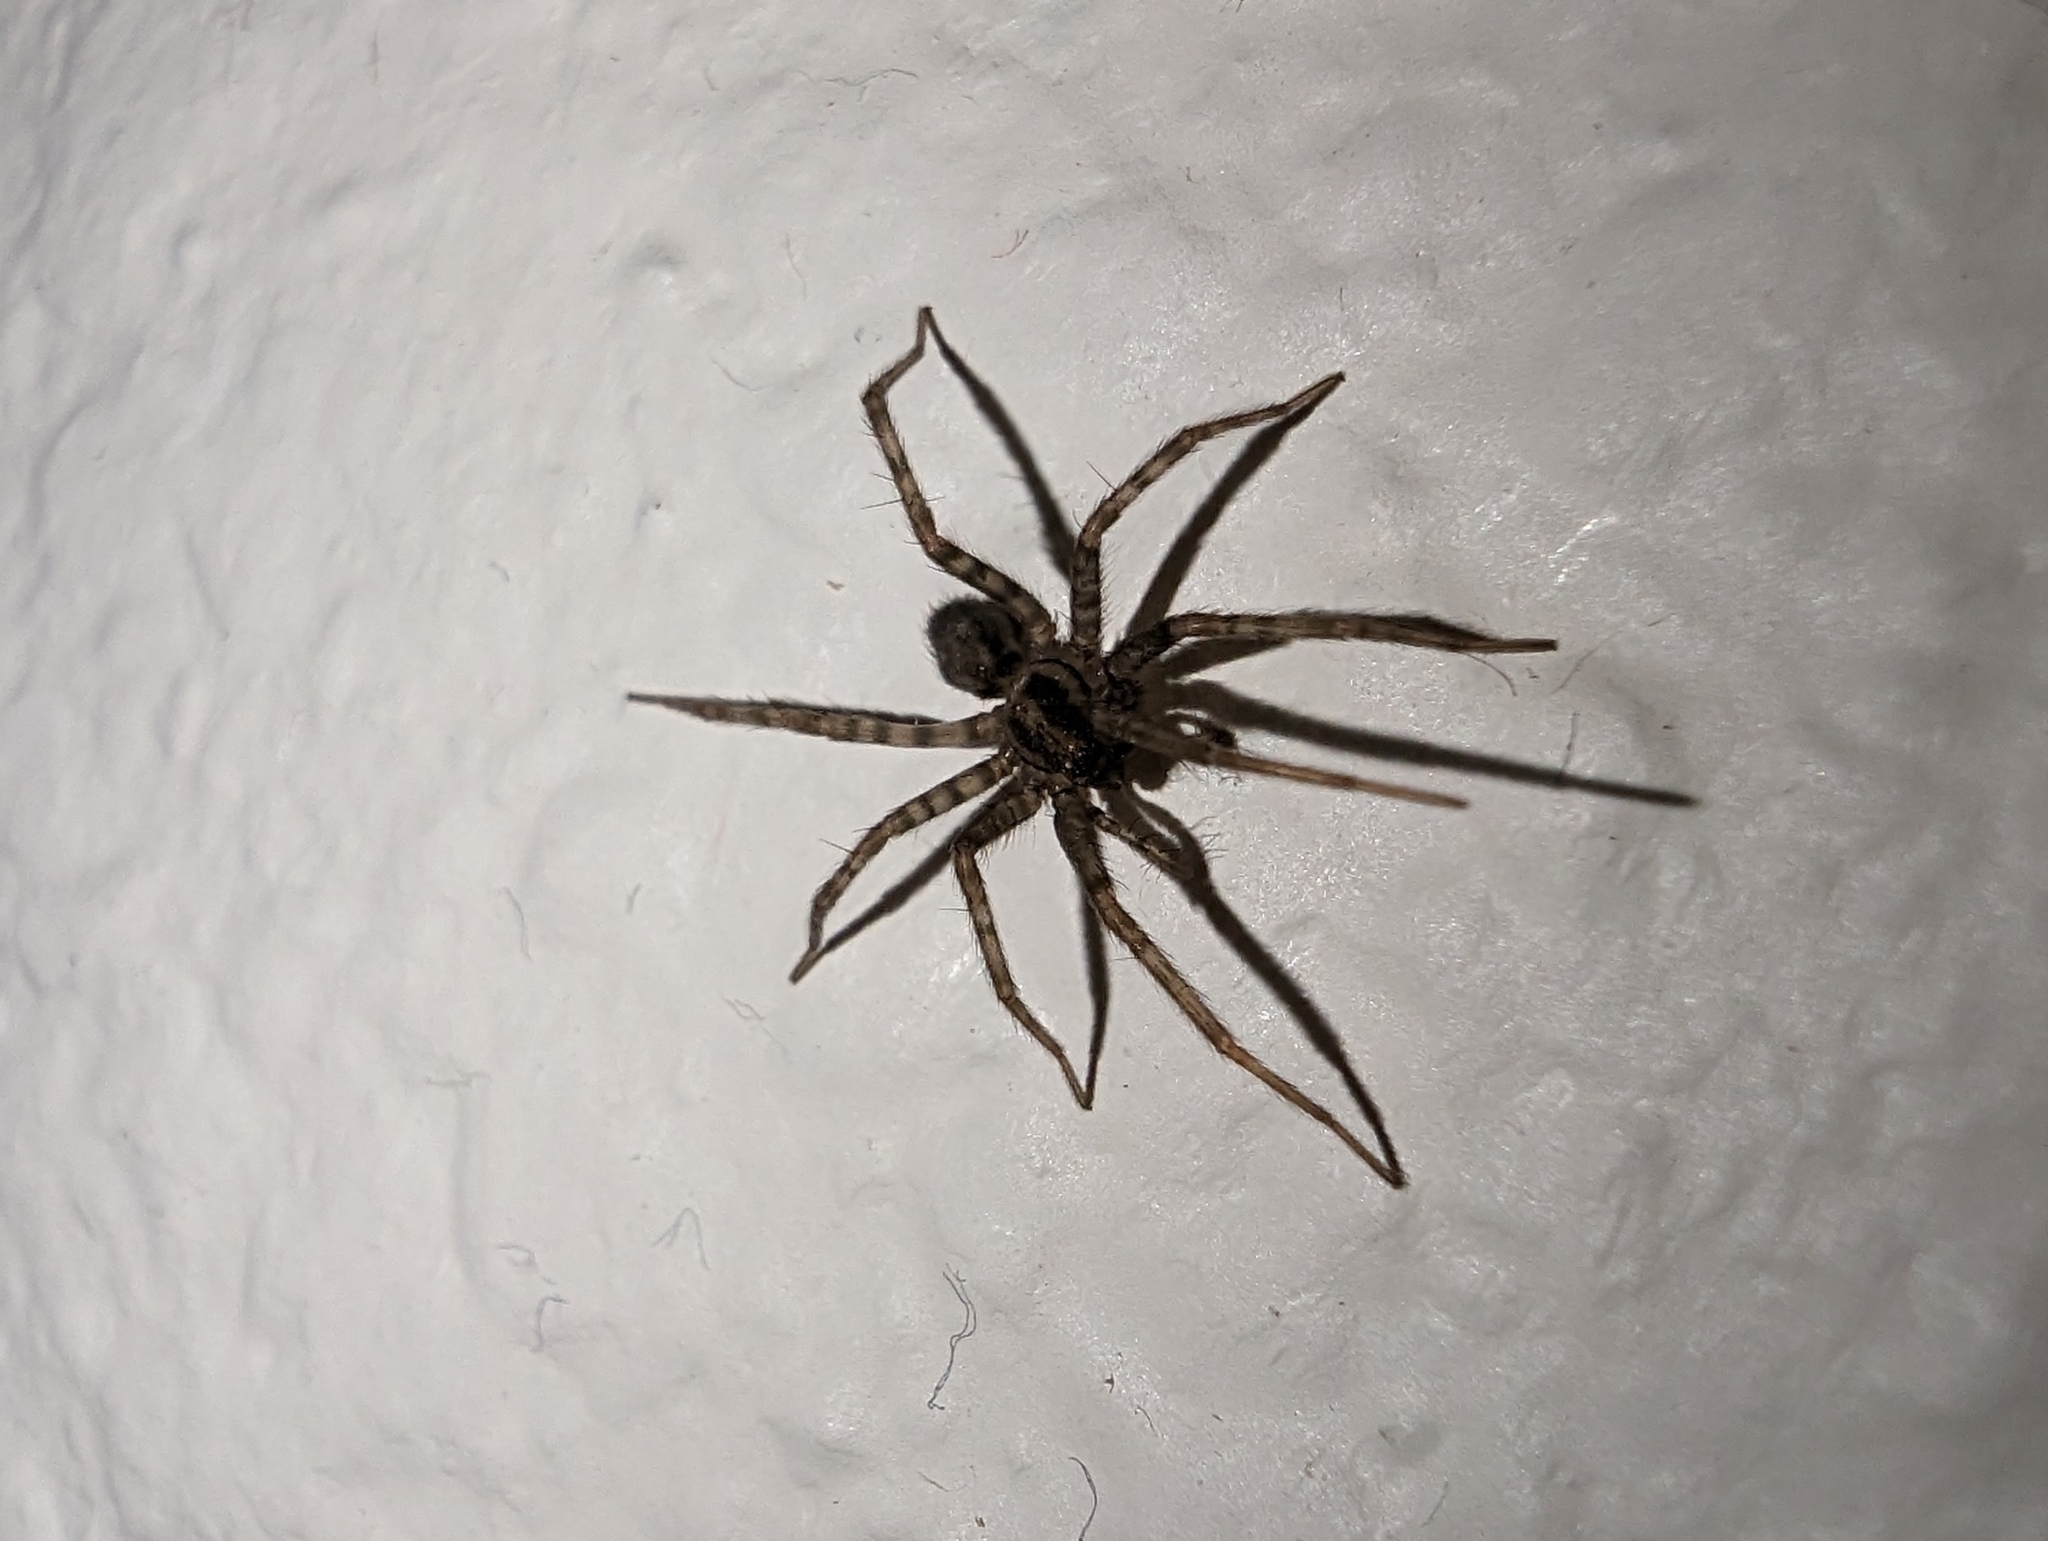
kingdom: Animalia
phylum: Arthropoda
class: Arachnida
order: Araneae
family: Agelenidae
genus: Tegenaria
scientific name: Tegenaria domestica
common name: Barn funnel weaver
